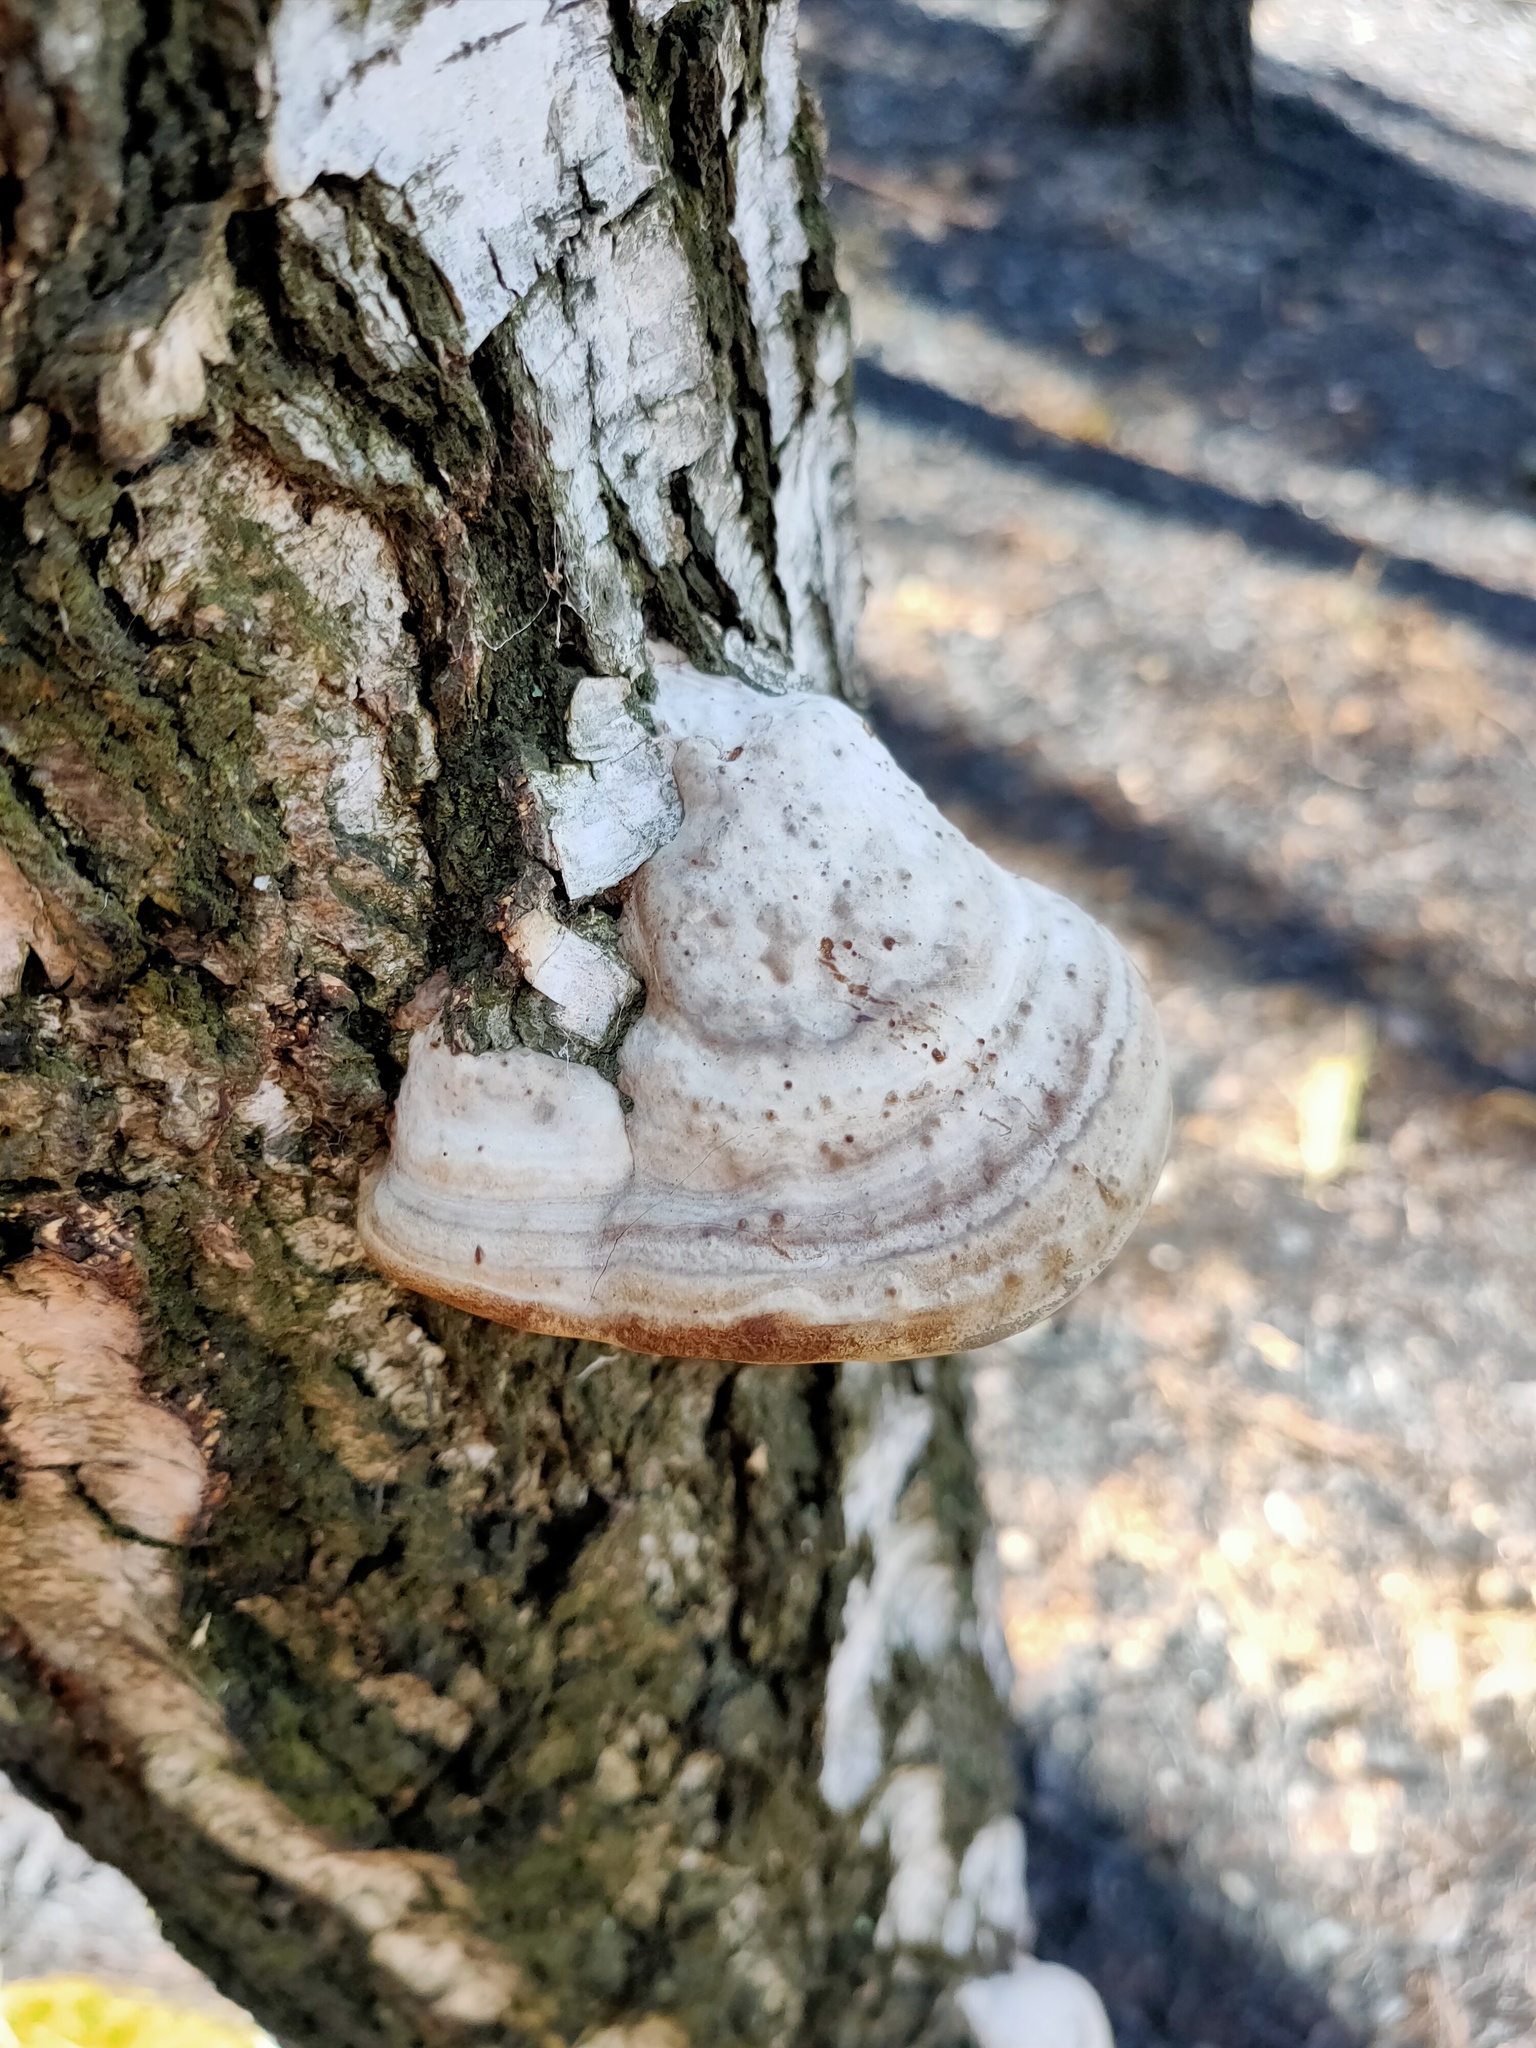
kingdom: Fungi
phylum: Basidiomycota
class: Agaricomycetes
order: Polyporales
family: Polyporaceae
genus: Fomes
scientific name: Fomes fomentarius
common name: Hoof fungus
